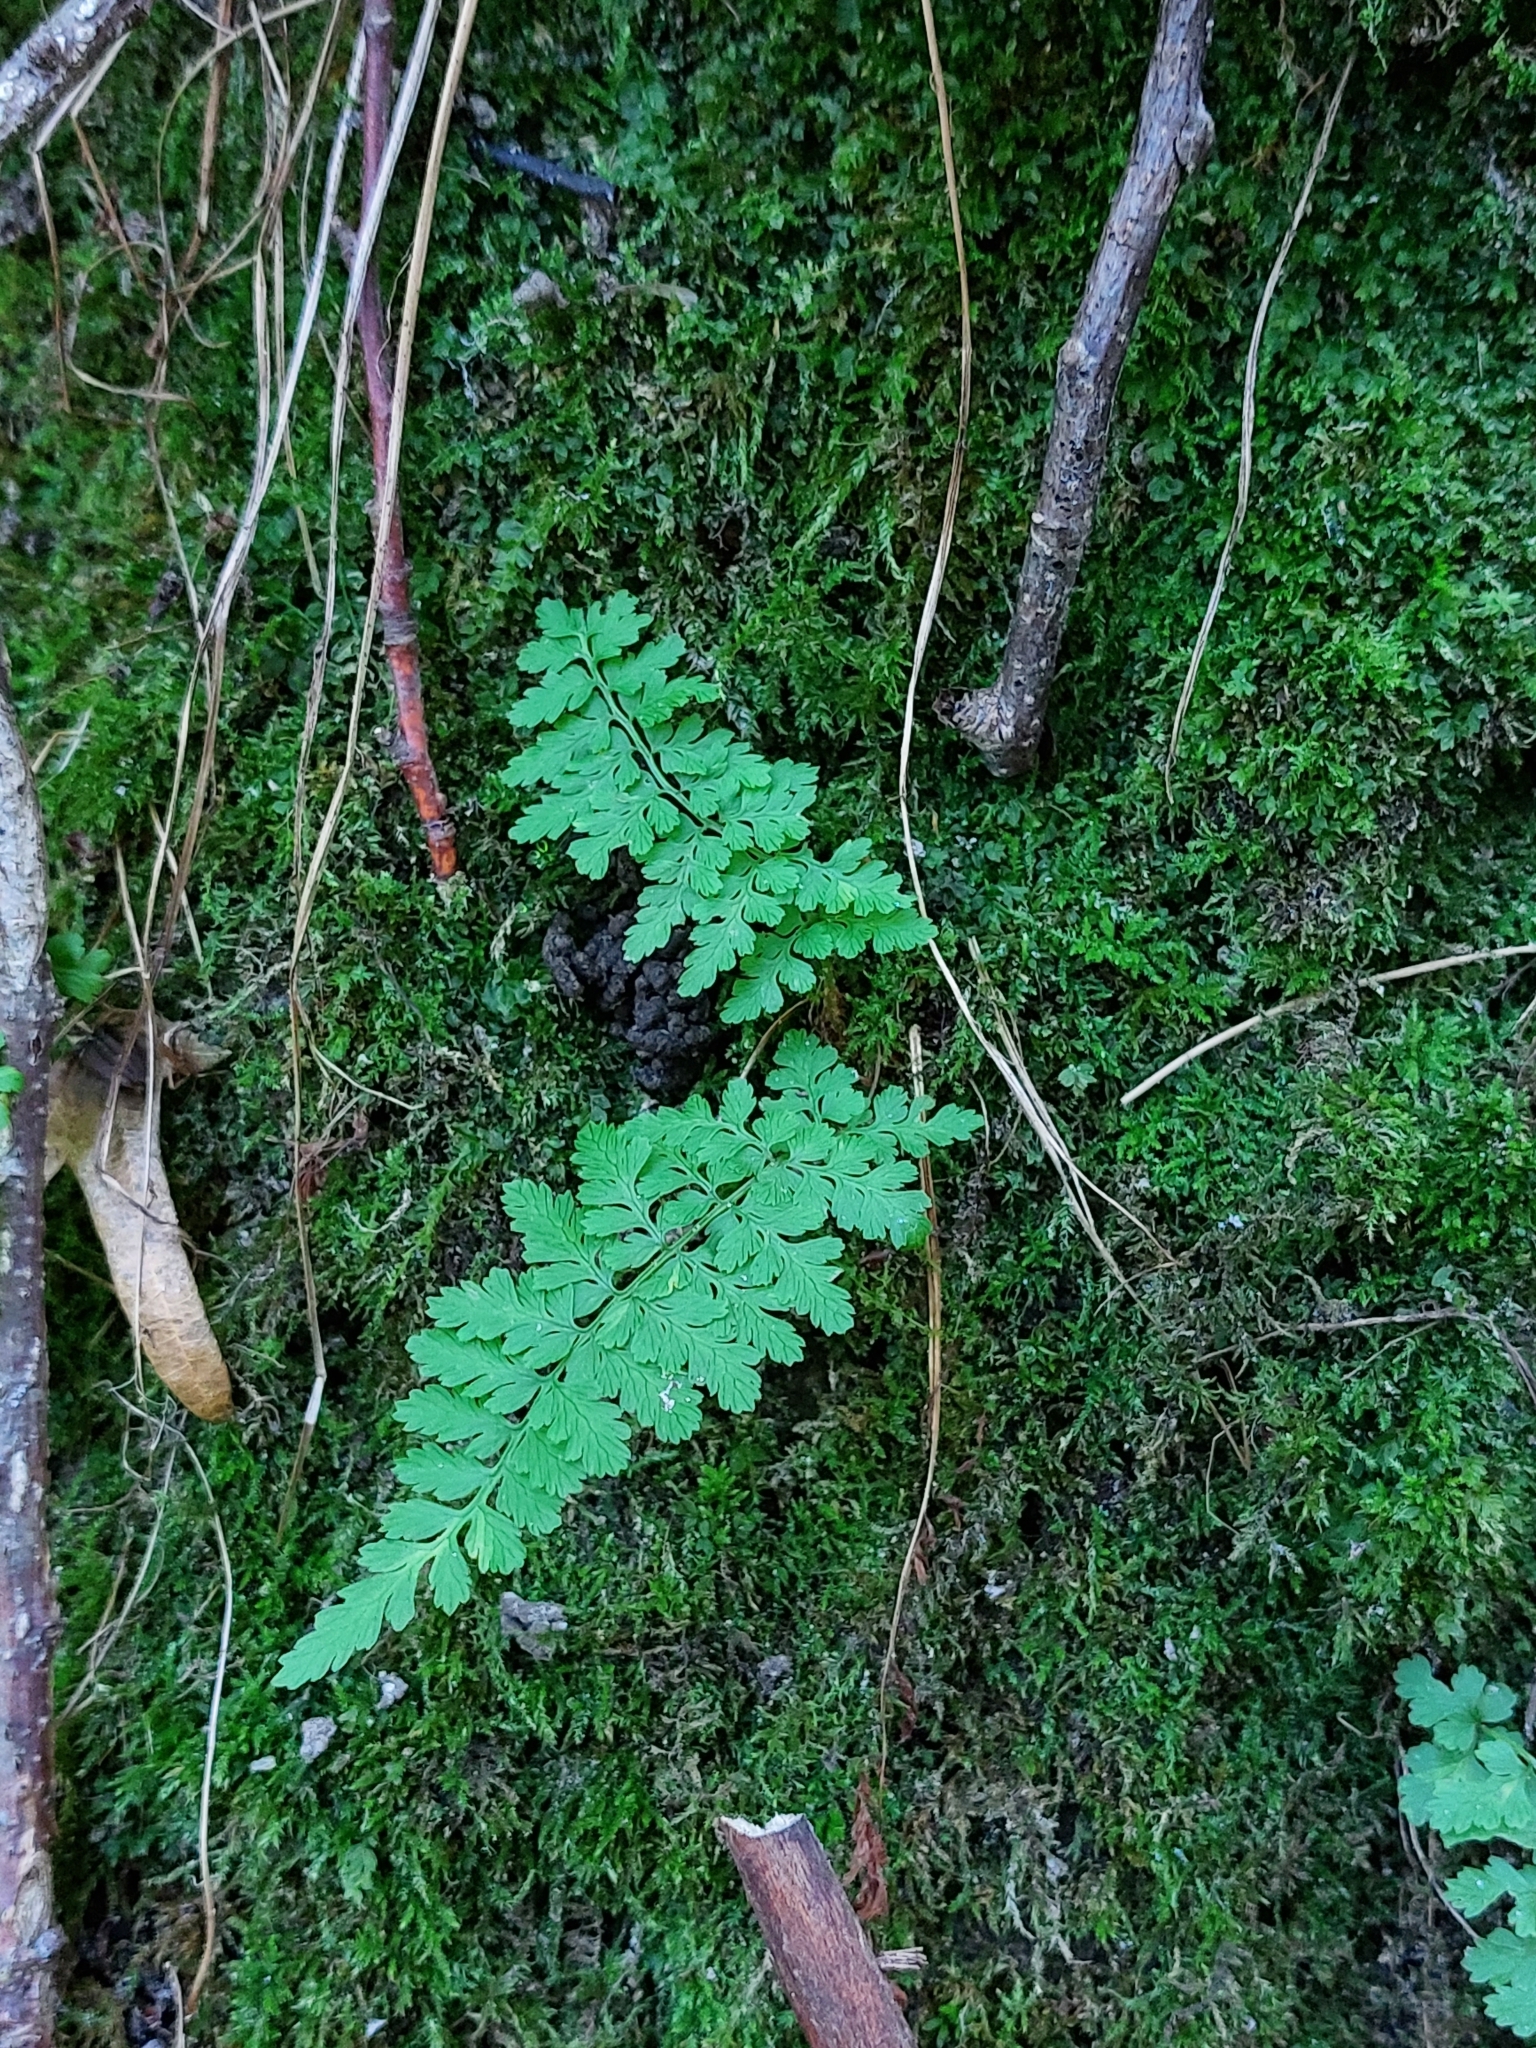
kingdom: Plantae
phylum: Tracheophyta
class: Polypodiopsida
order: Polypodiales
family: Cystopteridaceae
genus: Cystopteris
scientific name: Cystopteris fragilis
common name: Brittle bladder fern
